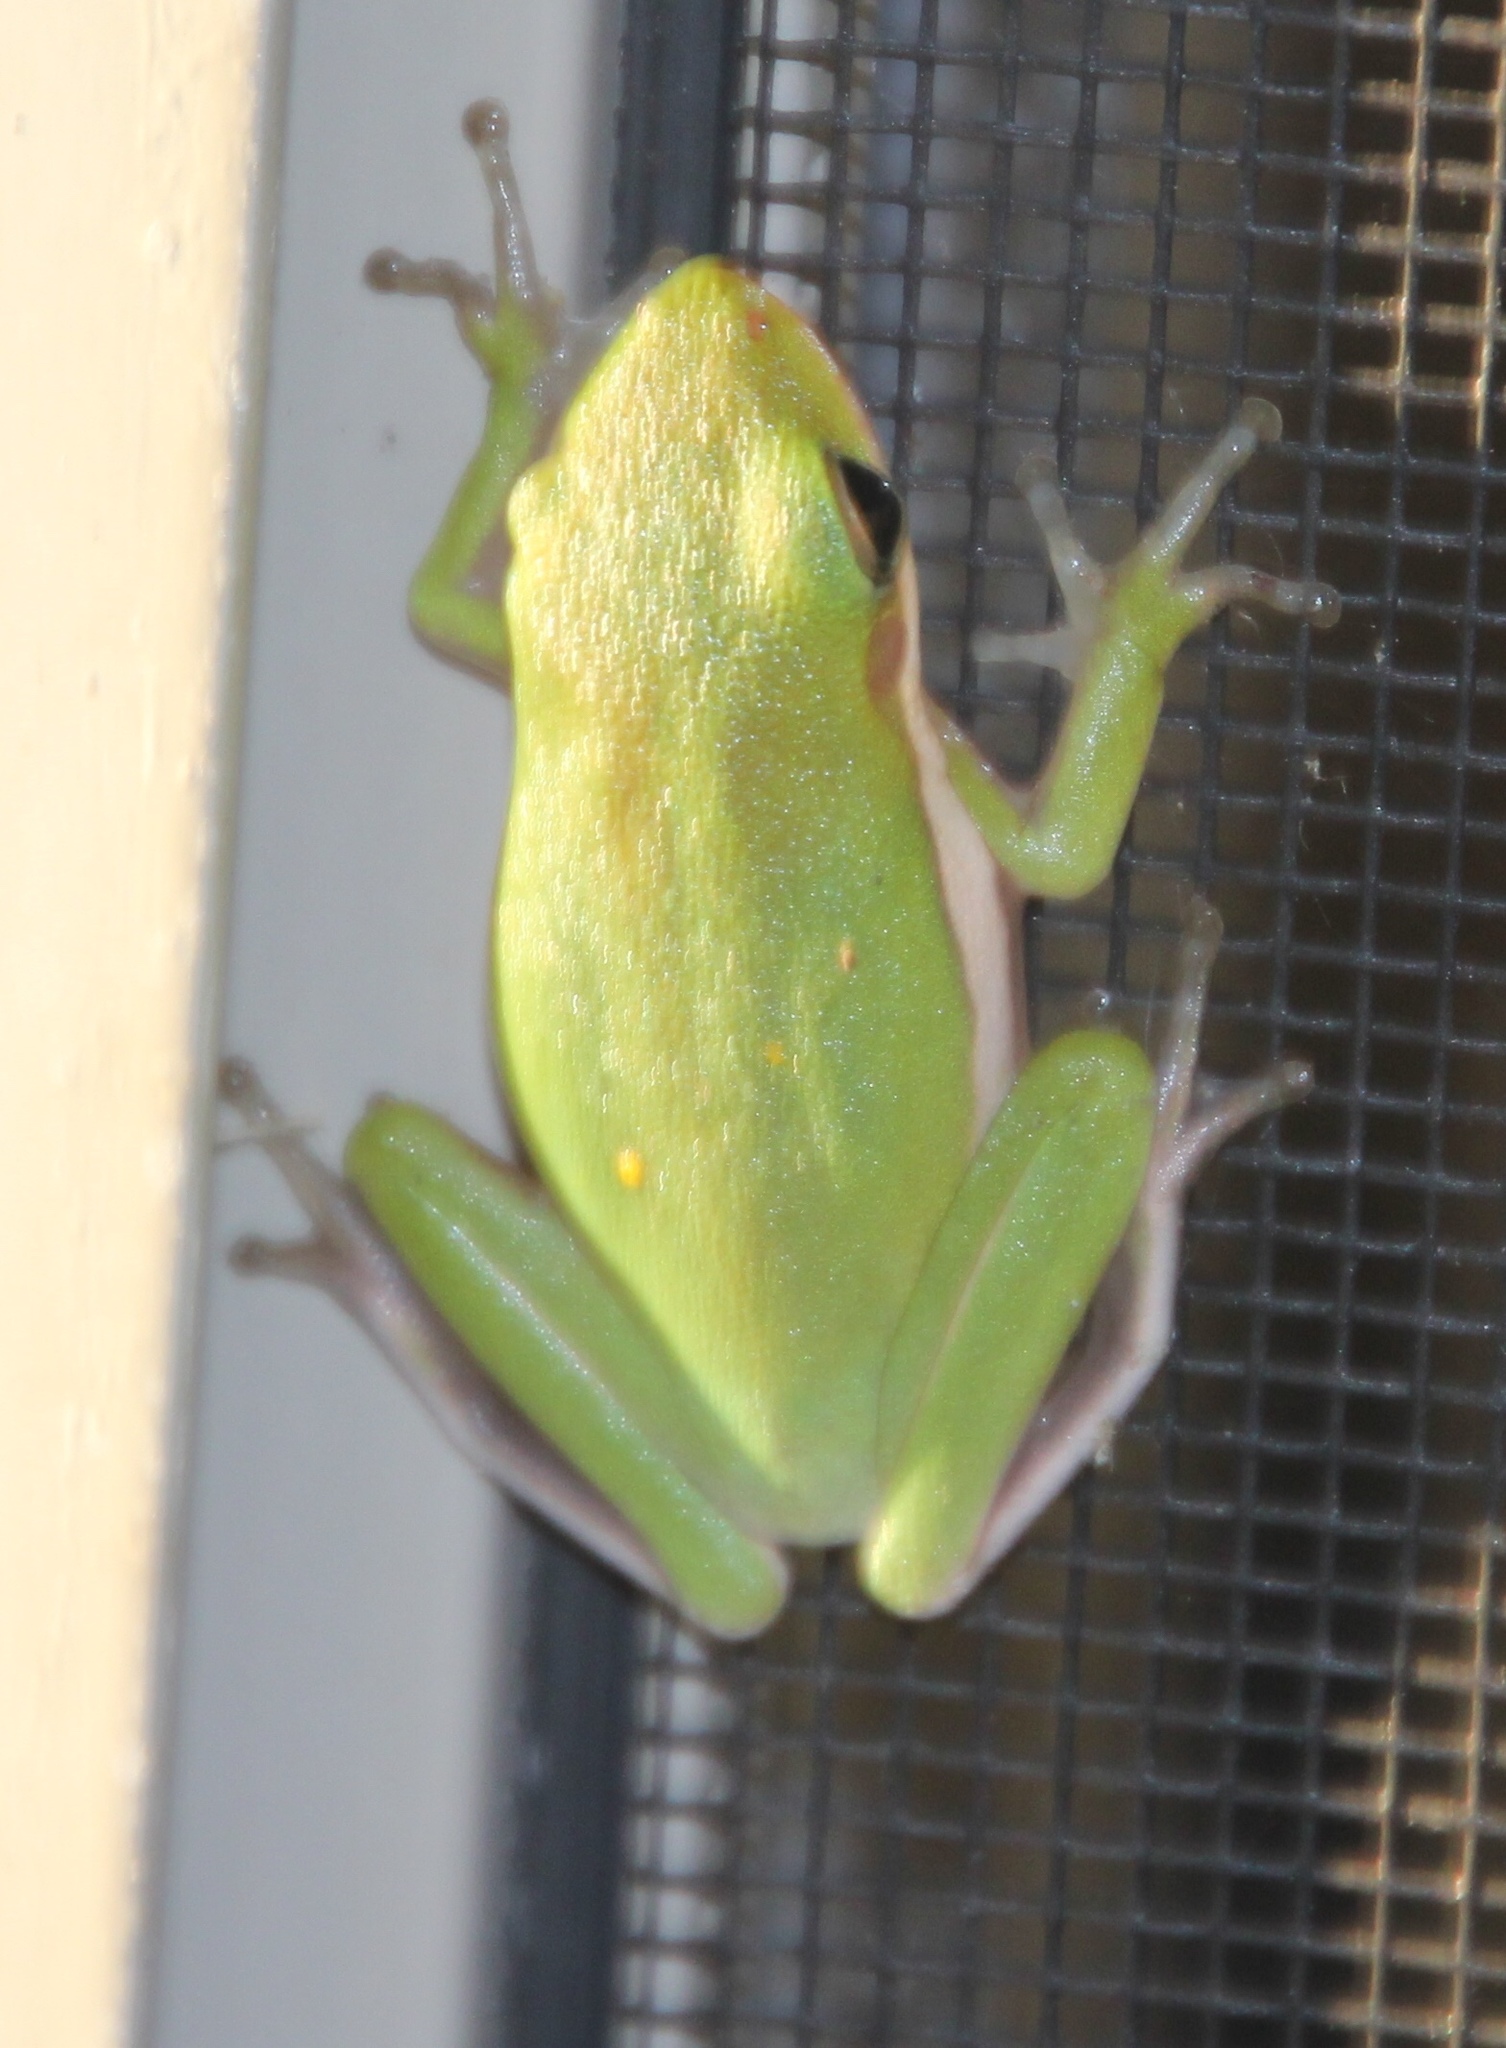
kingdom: Animalia
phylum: Chordata
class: Amphibia
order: Anura
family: Hylidae
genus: Dryophytes
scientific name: Dryophytes cinereus
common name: Green treefrog
